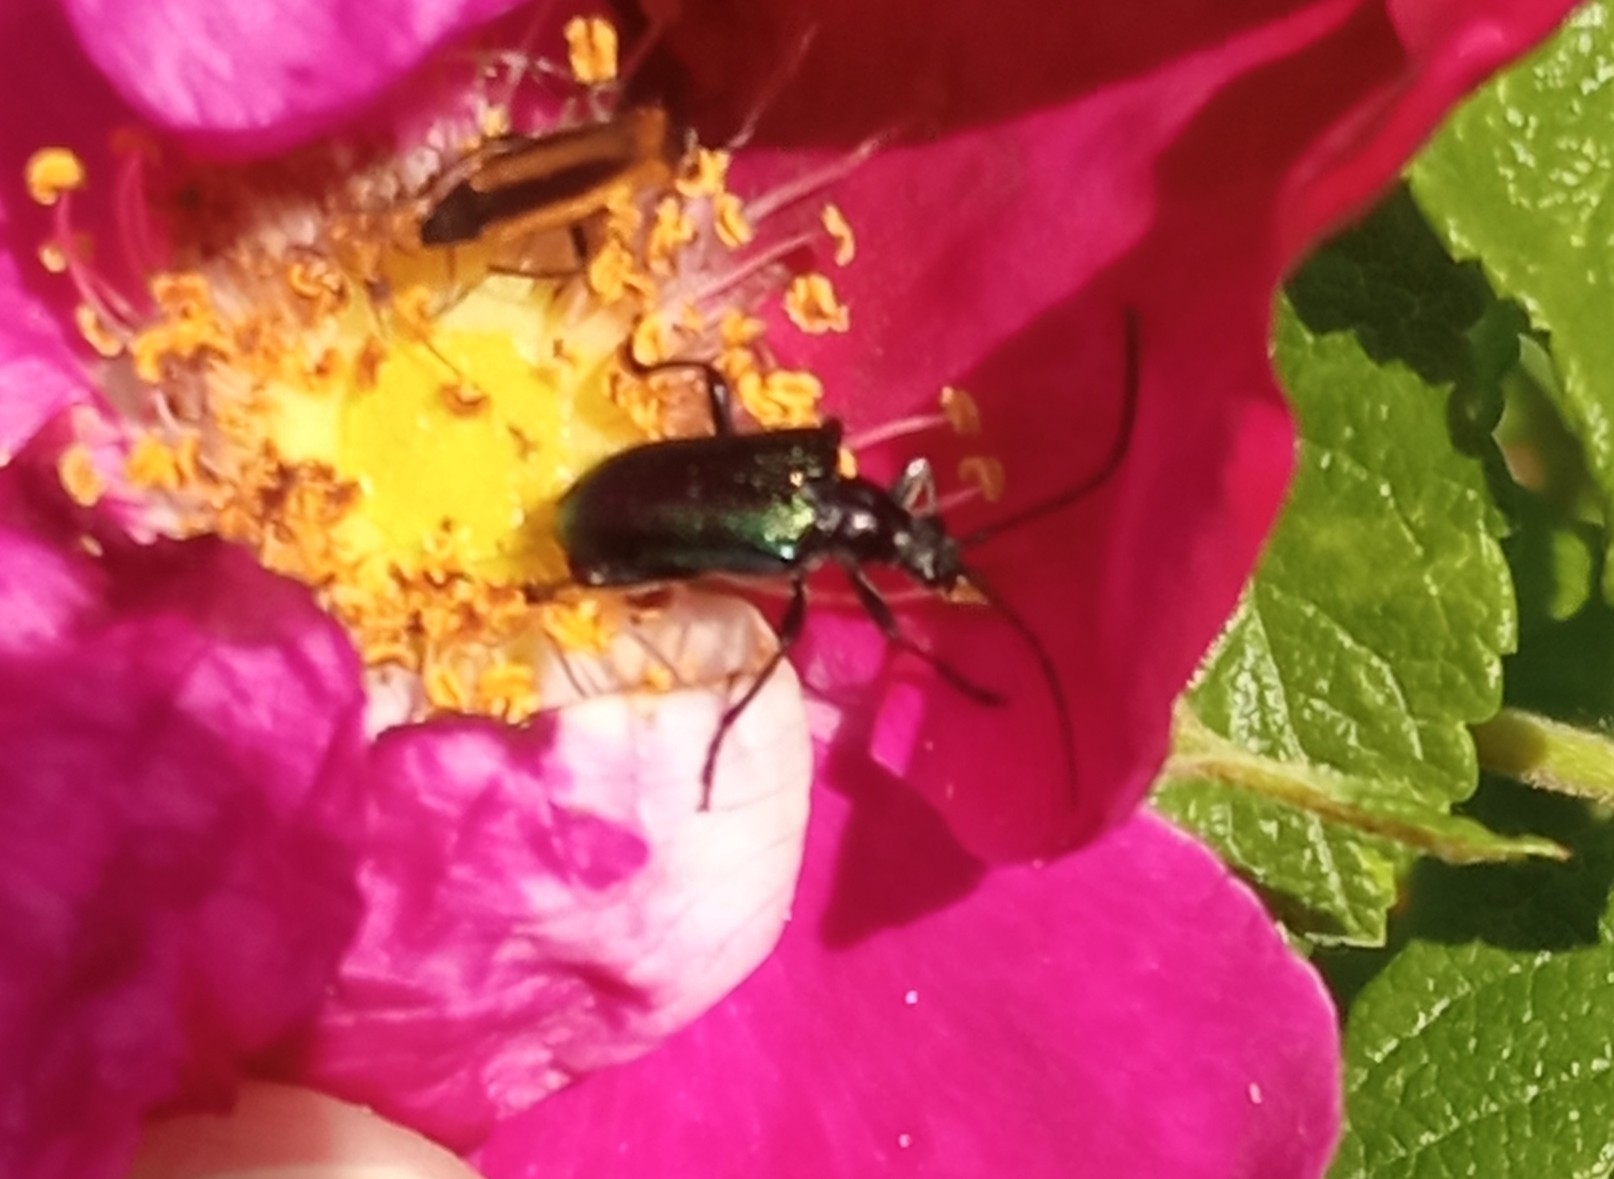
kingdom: Animalia
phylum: Arthropoda
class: Insecta
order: Coleoptera
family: Cerambycidae
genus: Gaurotes
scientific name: Gaurotes virginea
